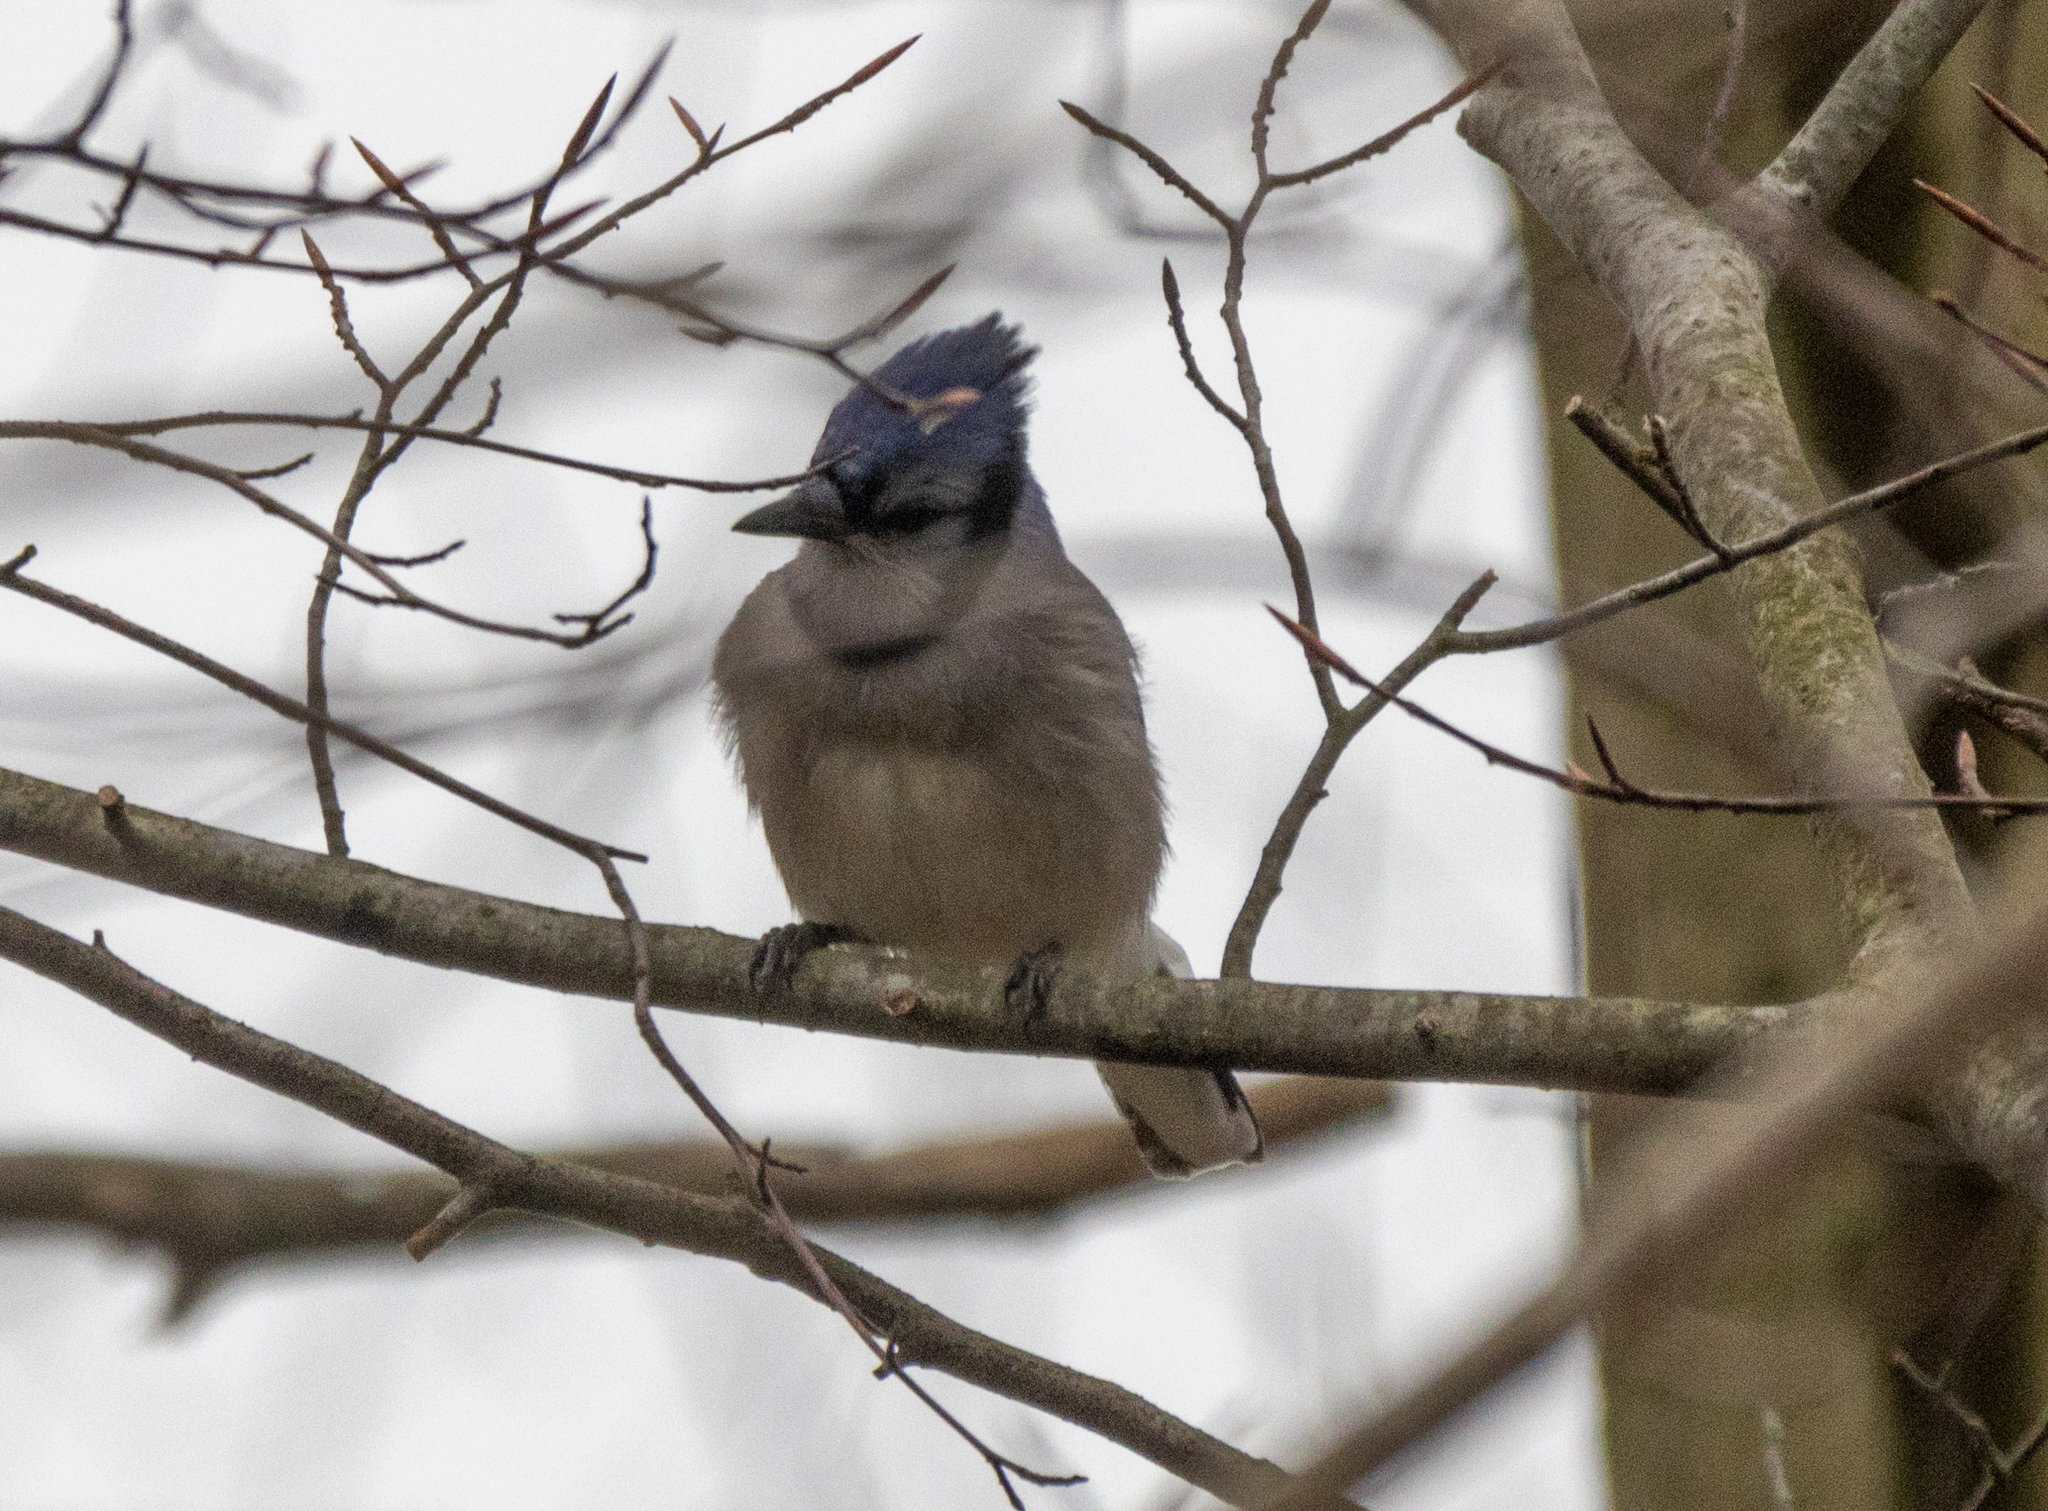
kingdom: Animalia
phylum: Chordata
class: Aves
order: Passeriformes
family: Corvidae
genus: Cyanocitta
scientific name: Cyanocitta cristata
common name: Blue jay
